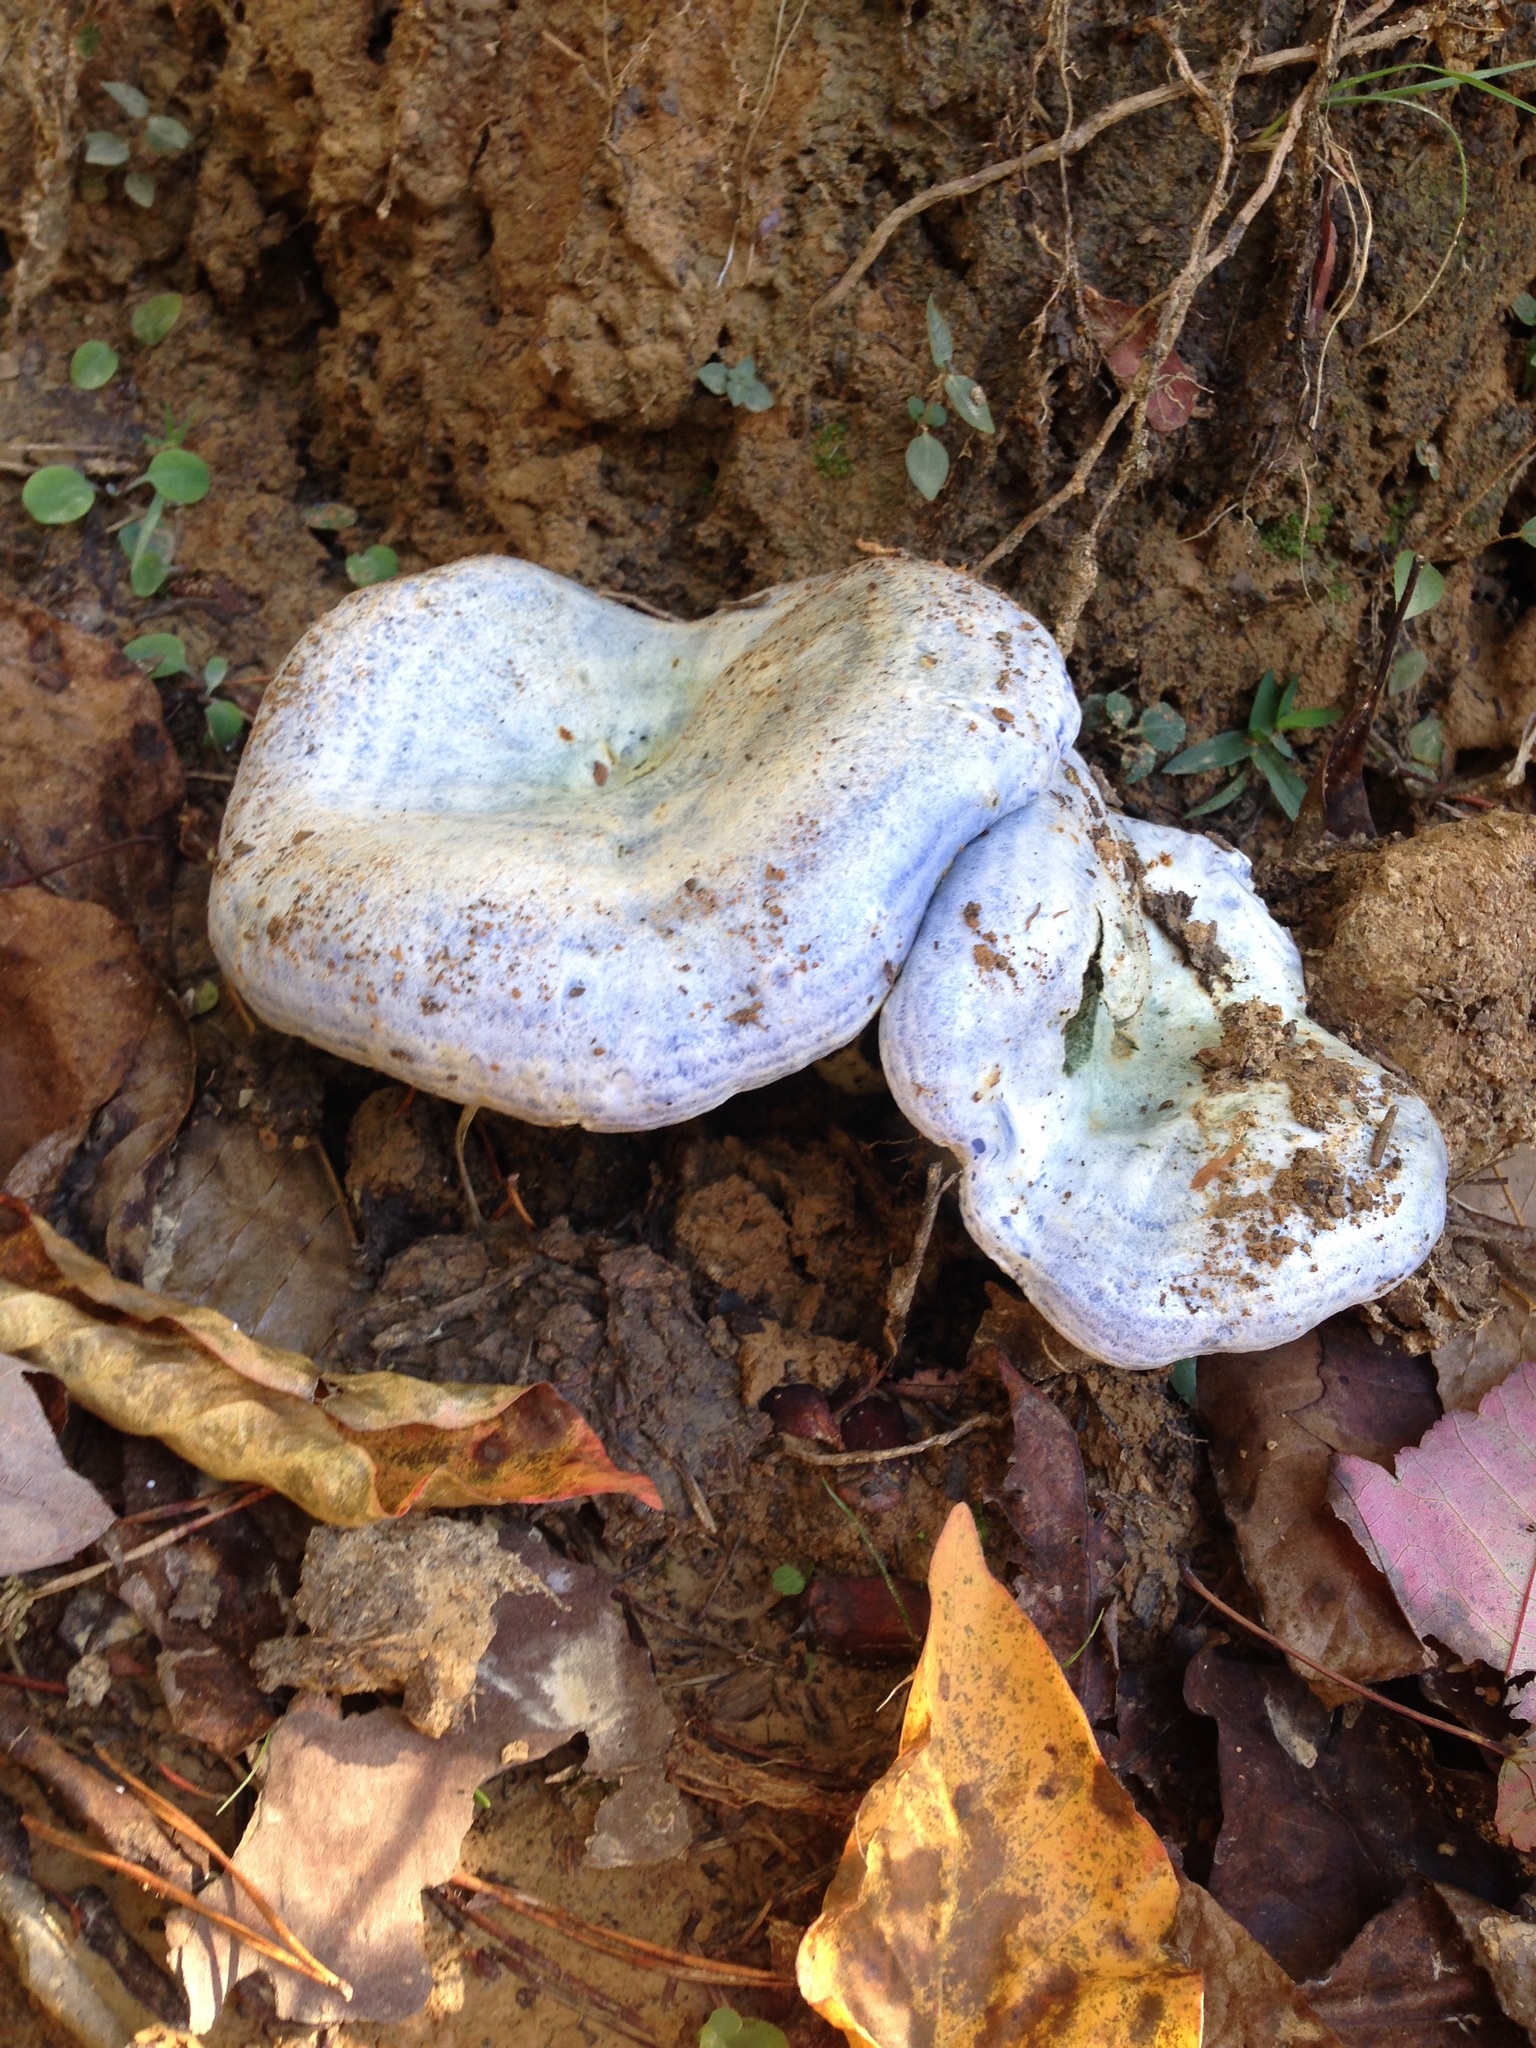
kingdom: Fungi
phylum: Basidiomycota
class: Agaricomycetes
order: Russulales
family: Russulaceae
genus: Lactarius
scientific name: Lactarius indigo
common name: Indigo milk cap
